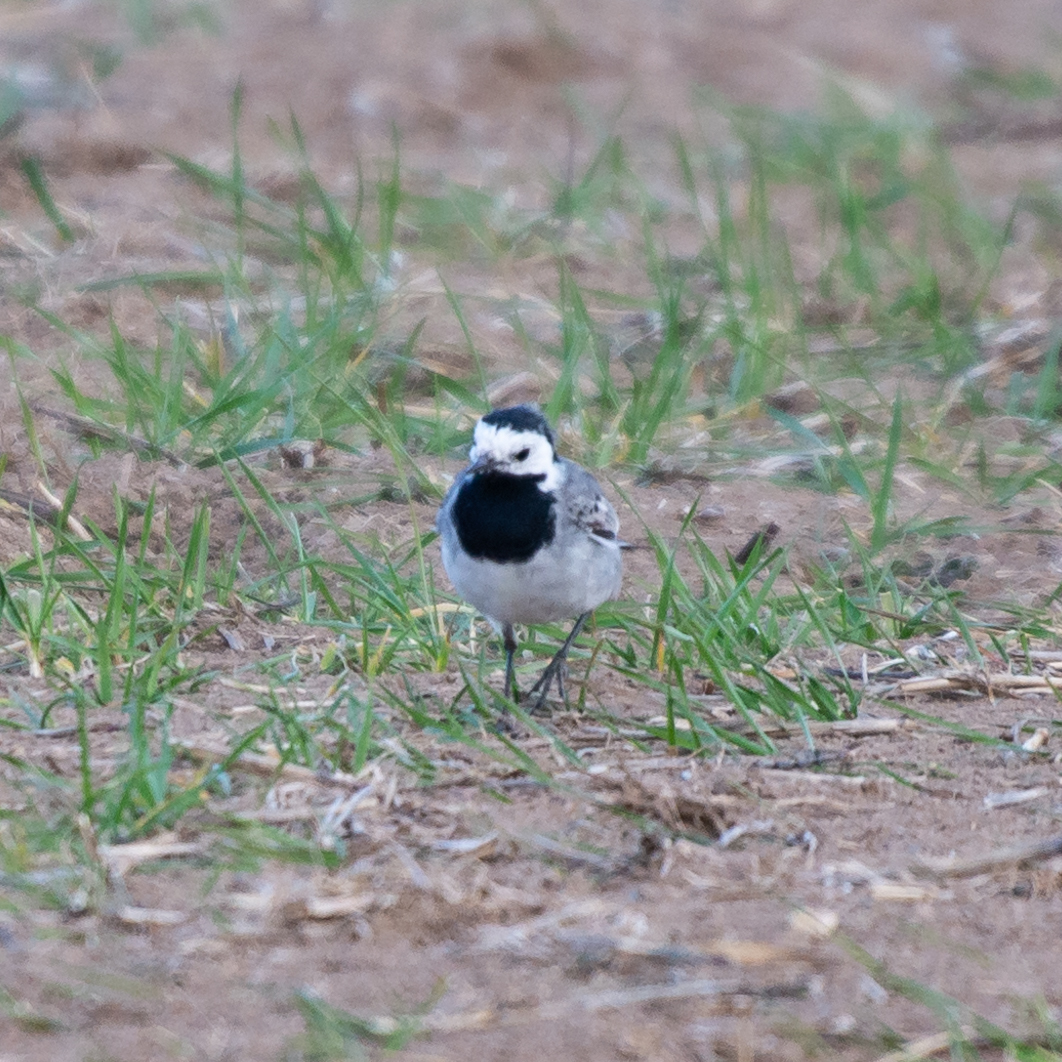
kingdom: Animalia
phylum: Chordata
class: Aves
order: Passeriformes
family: Motacillidae
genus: Motacilla
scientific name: Motacilla alba
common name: White wagtail
